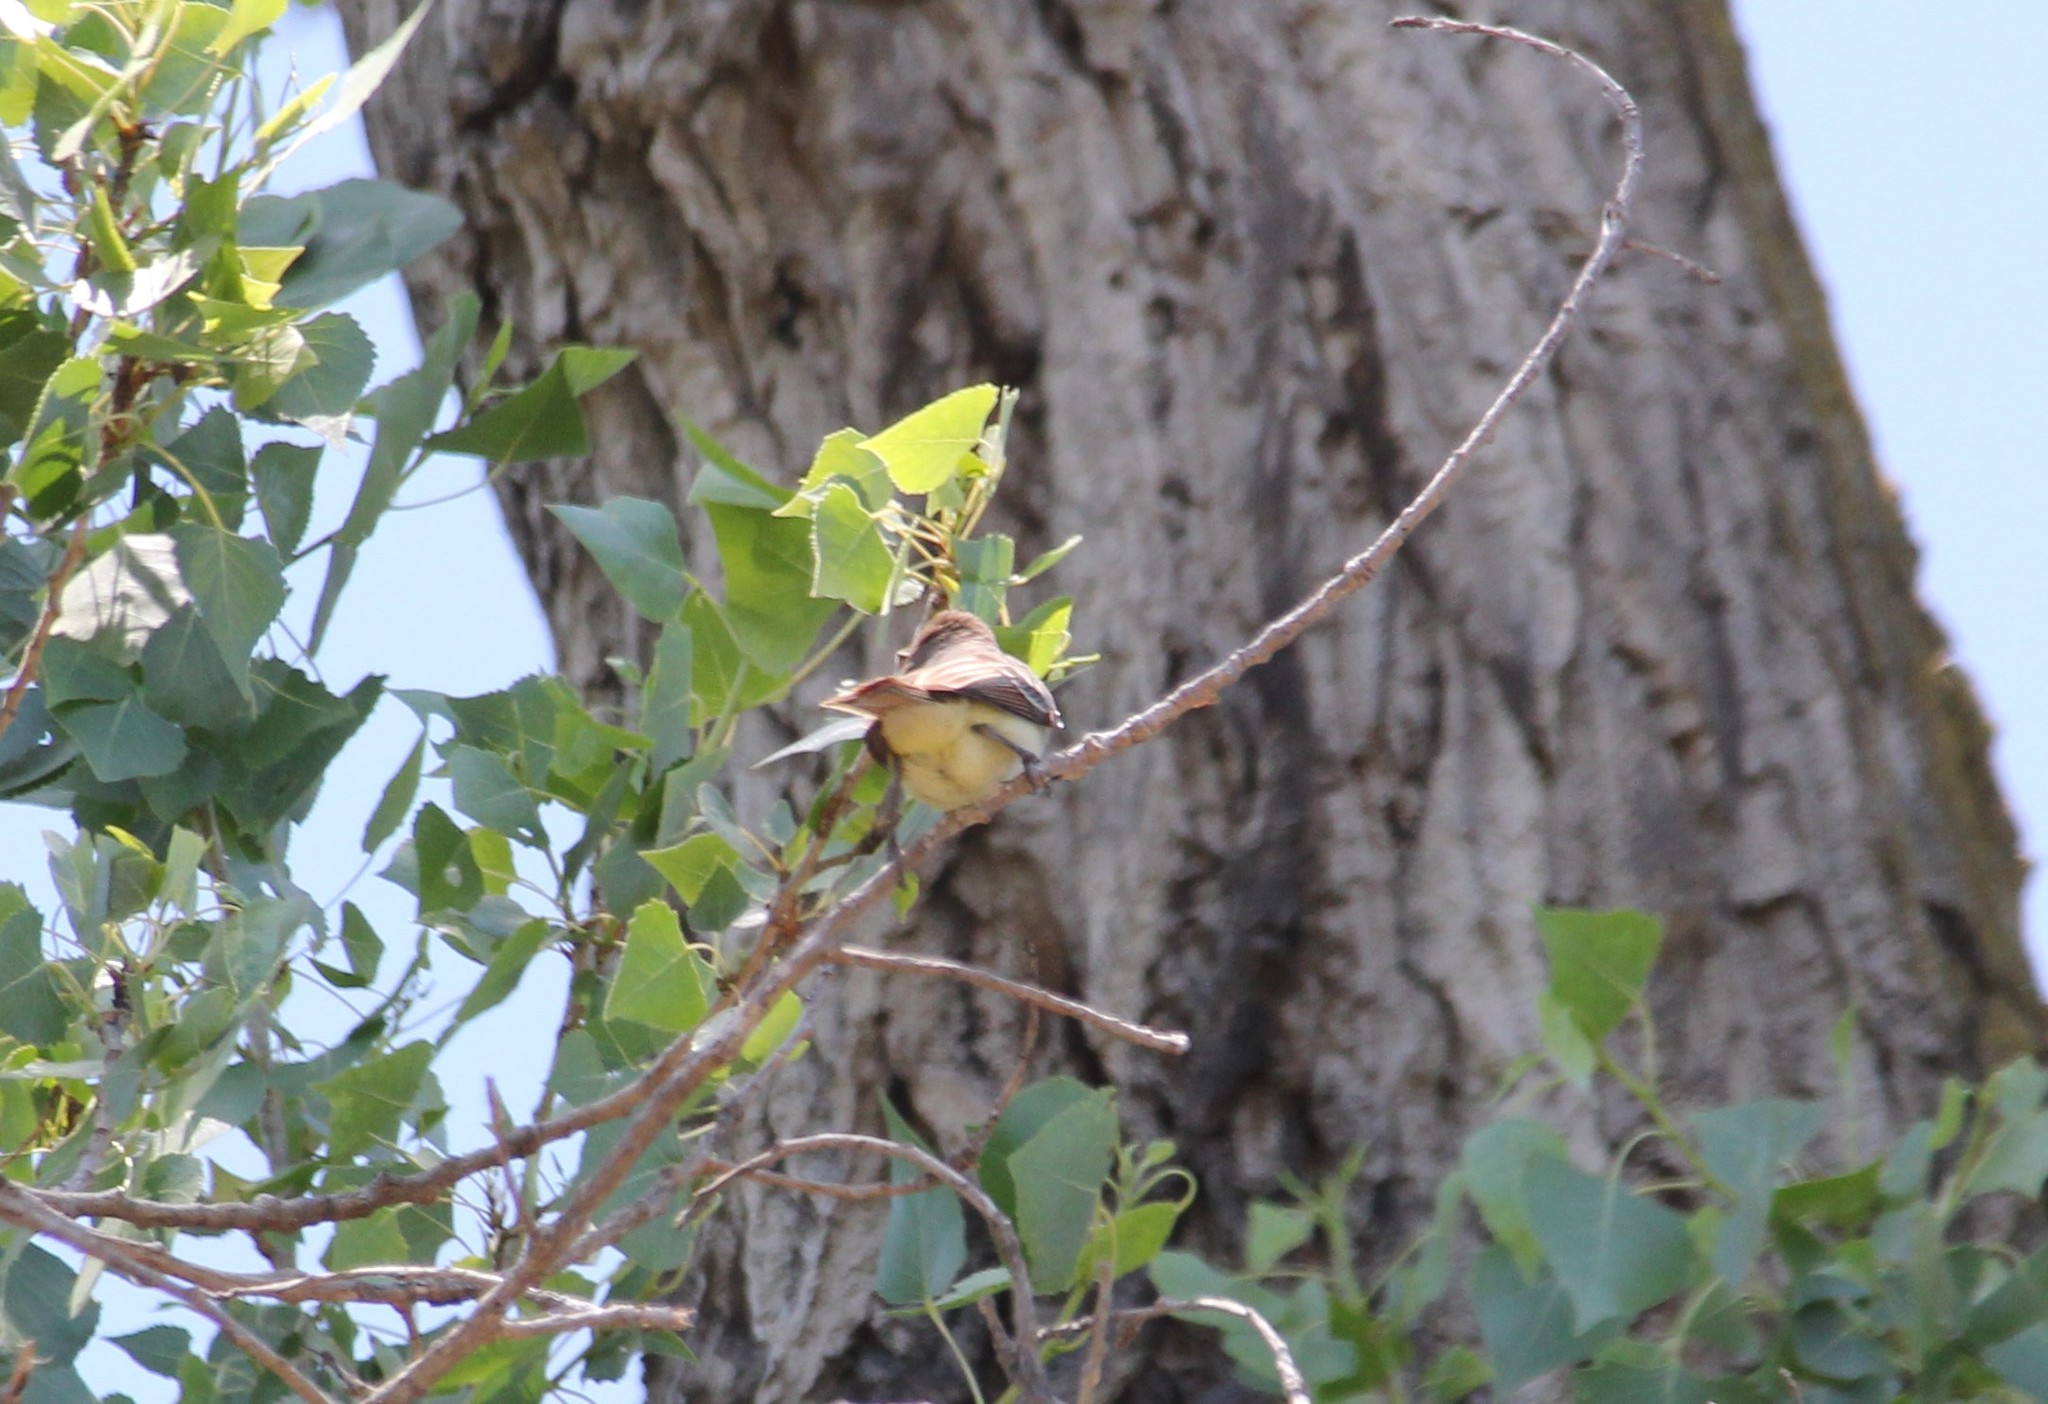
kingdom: Animalia
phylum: Chordata
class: Aves
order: Passeriformes
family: Tyrannidae
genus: Myiarchus
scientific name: Myiarchus cinerascens
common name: Ash-throated flycatcher
